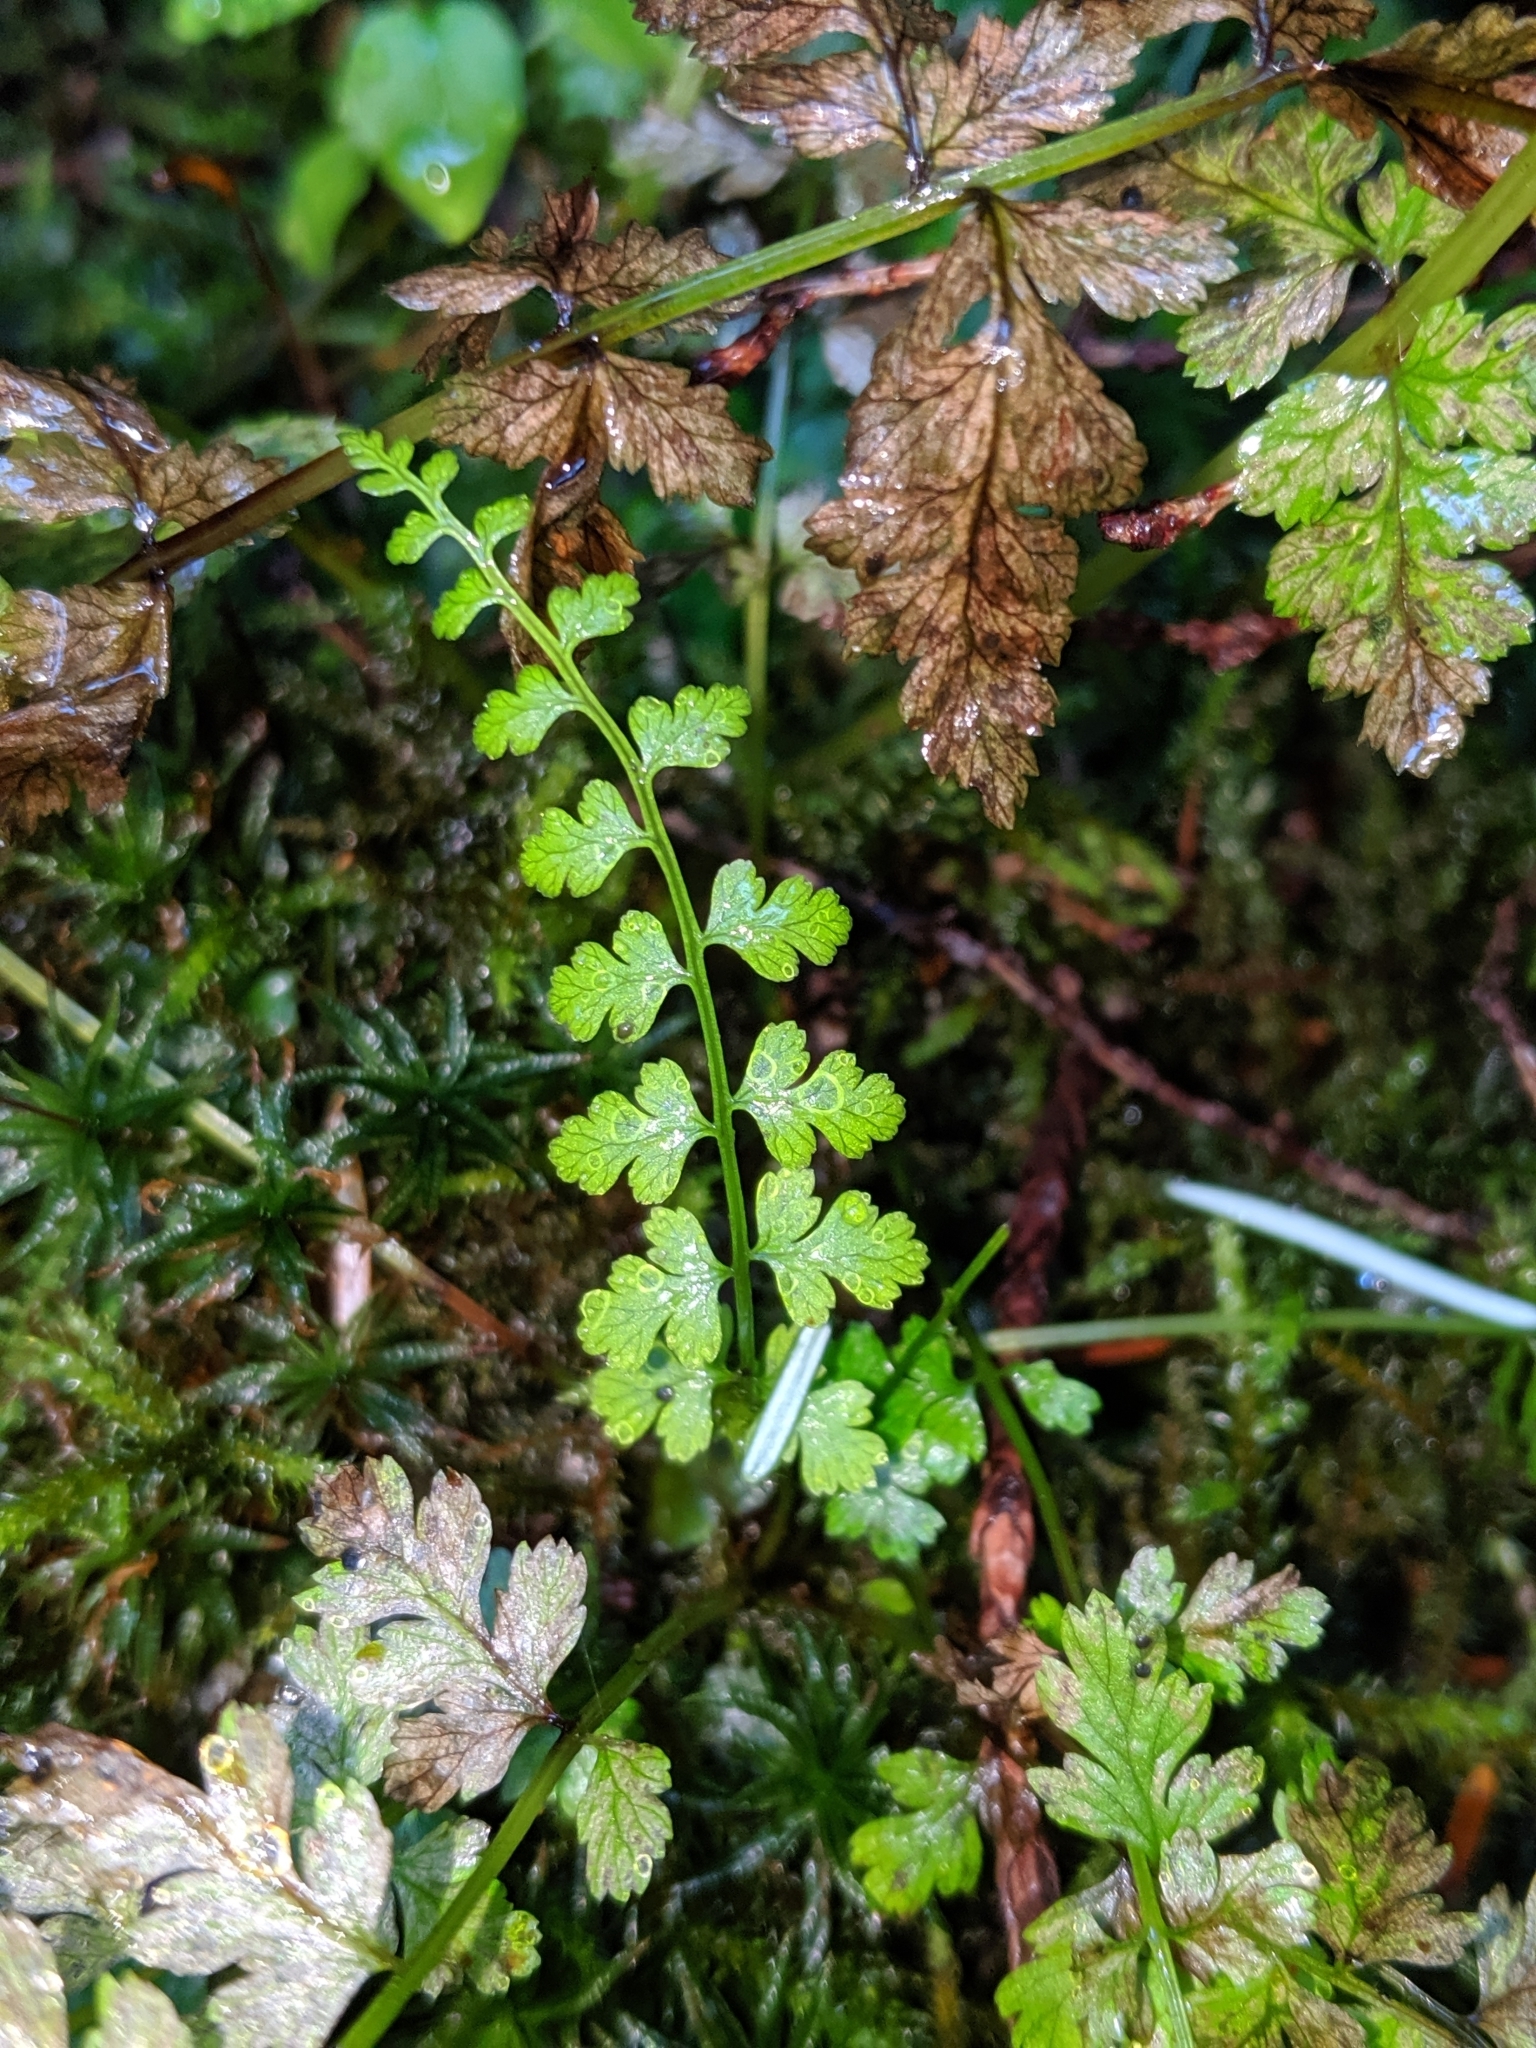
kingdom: Plantae
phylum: Tracheophyta
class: Polypodiopsida
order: Polypodiales
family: Athyriaceae
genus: Athyrium
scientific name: Athyrium filix-femina
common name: Lady fern
